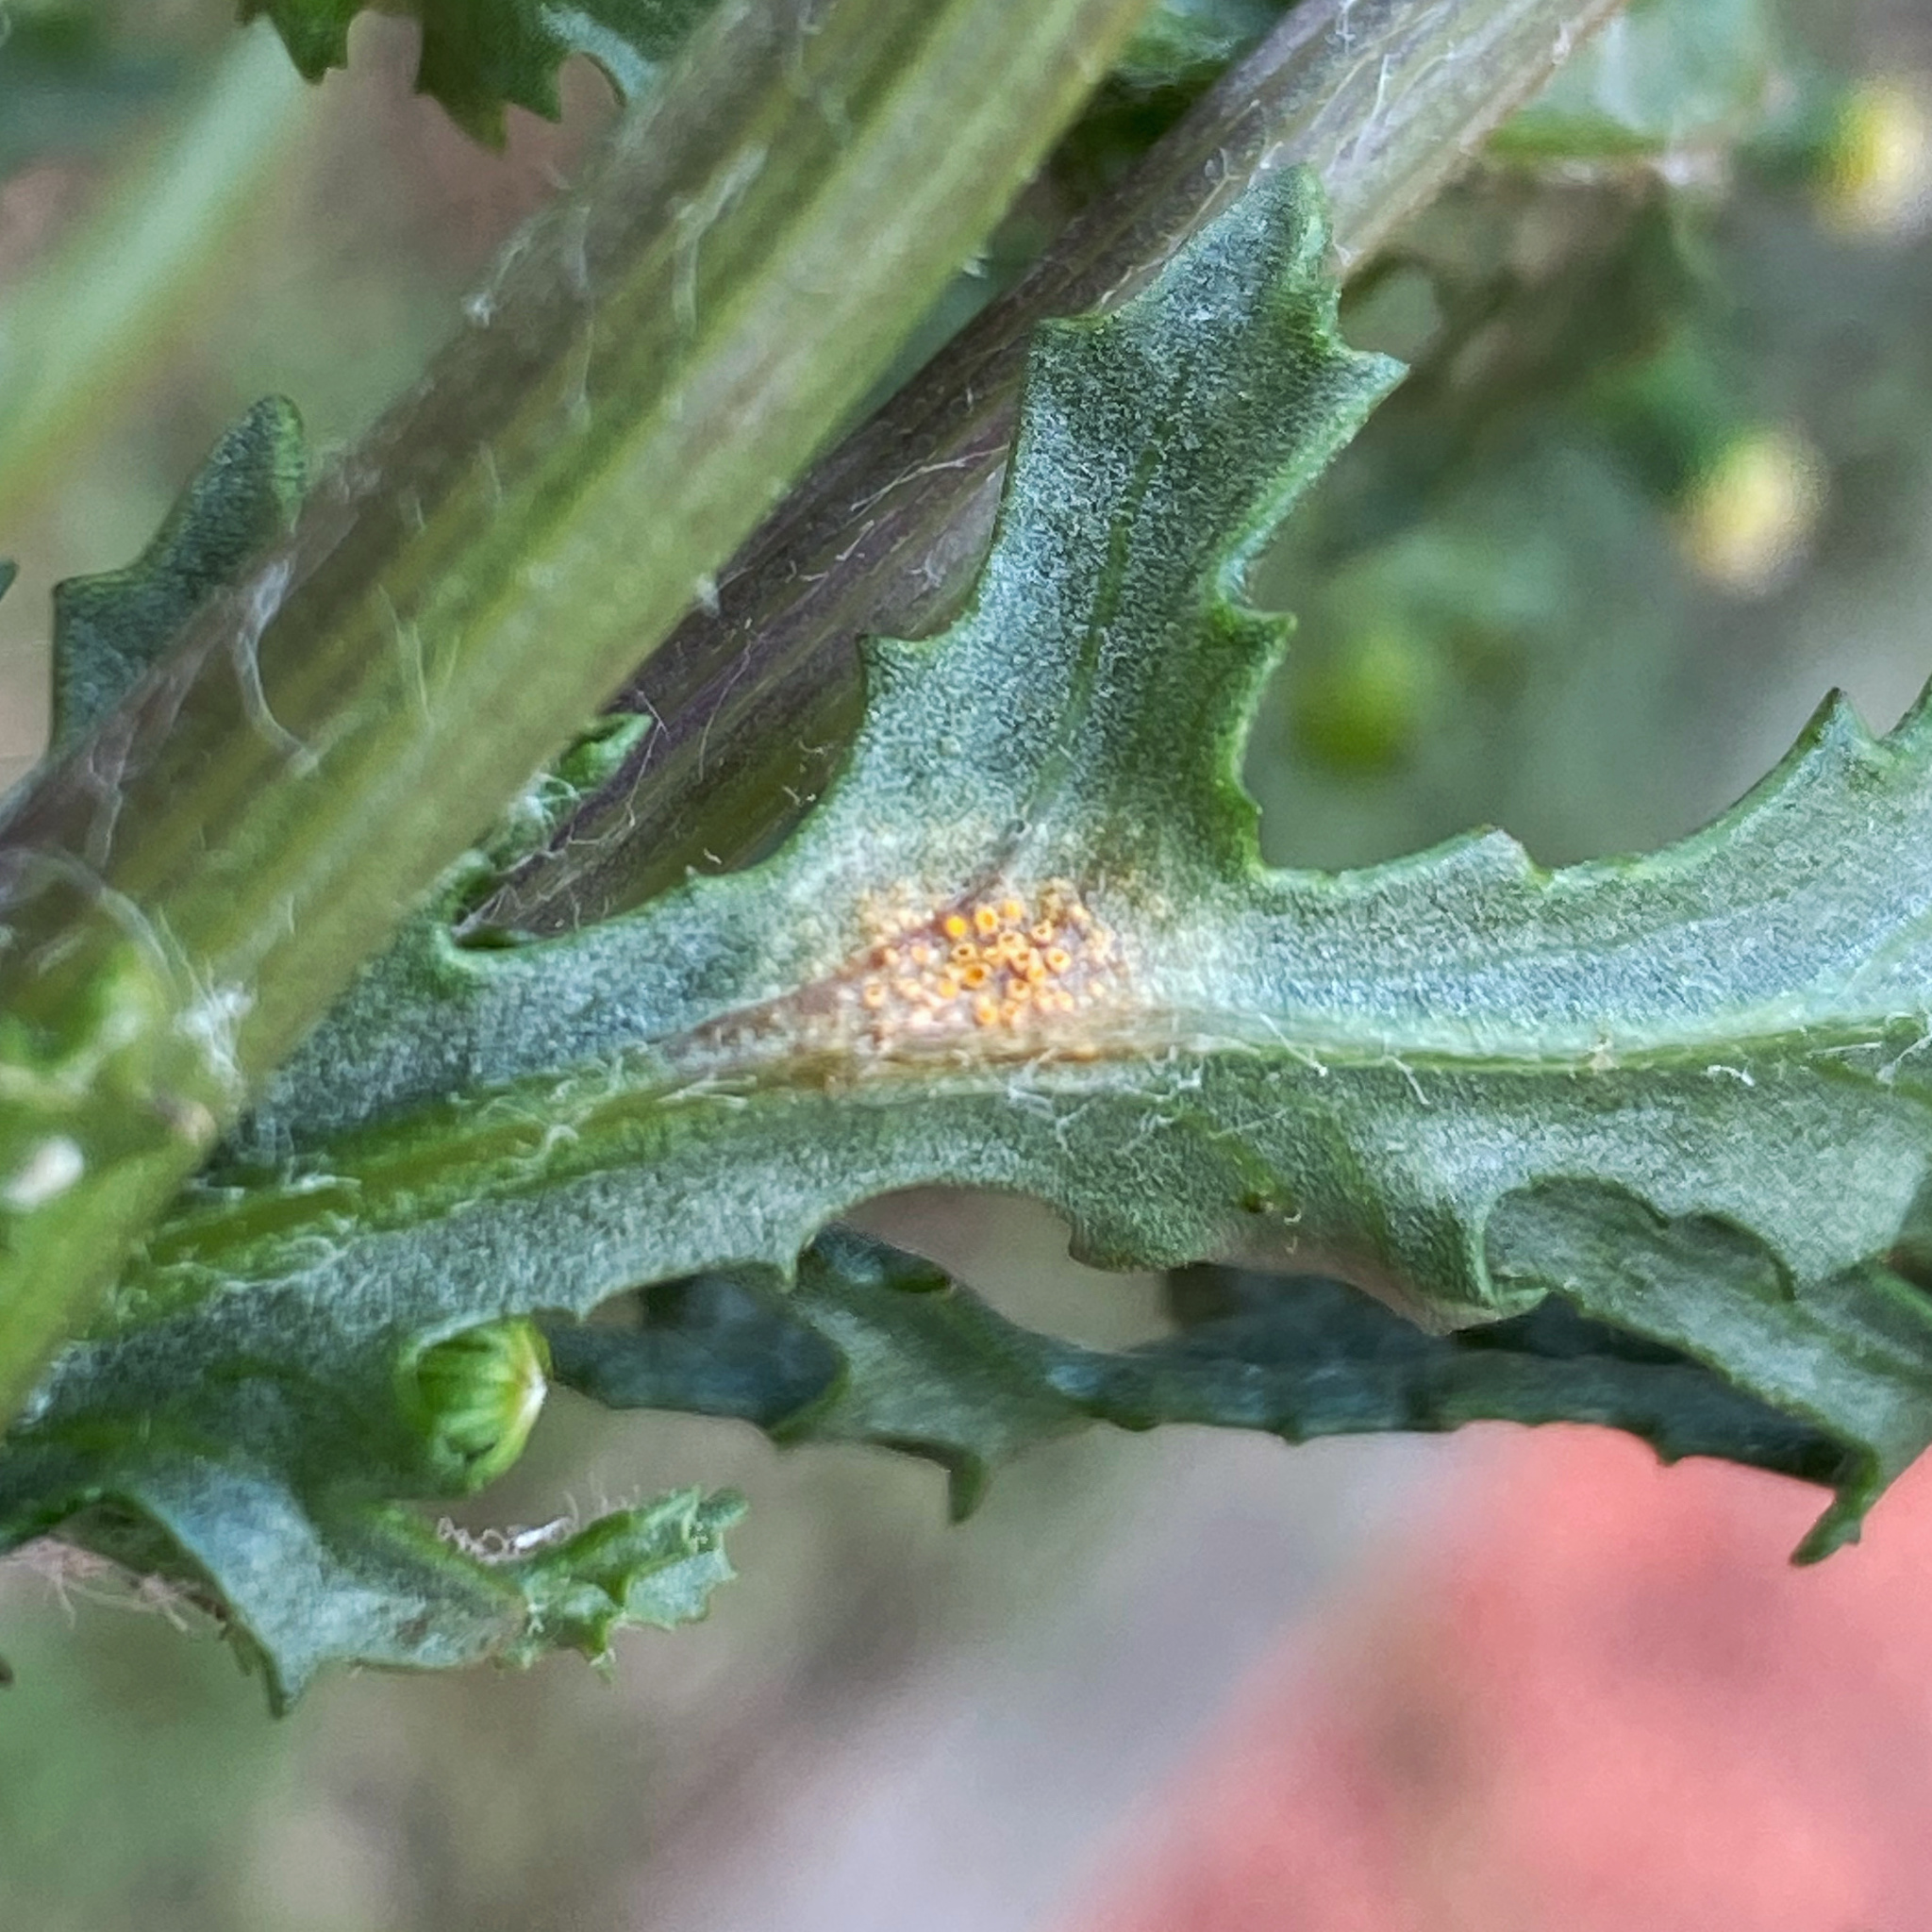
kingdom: Fungi
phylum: Basidiomycota
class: Pucciniomycetes
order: Pucciniales
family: Pucciniaceae
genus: Puccinia
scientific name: Puccinia lagenophorae
